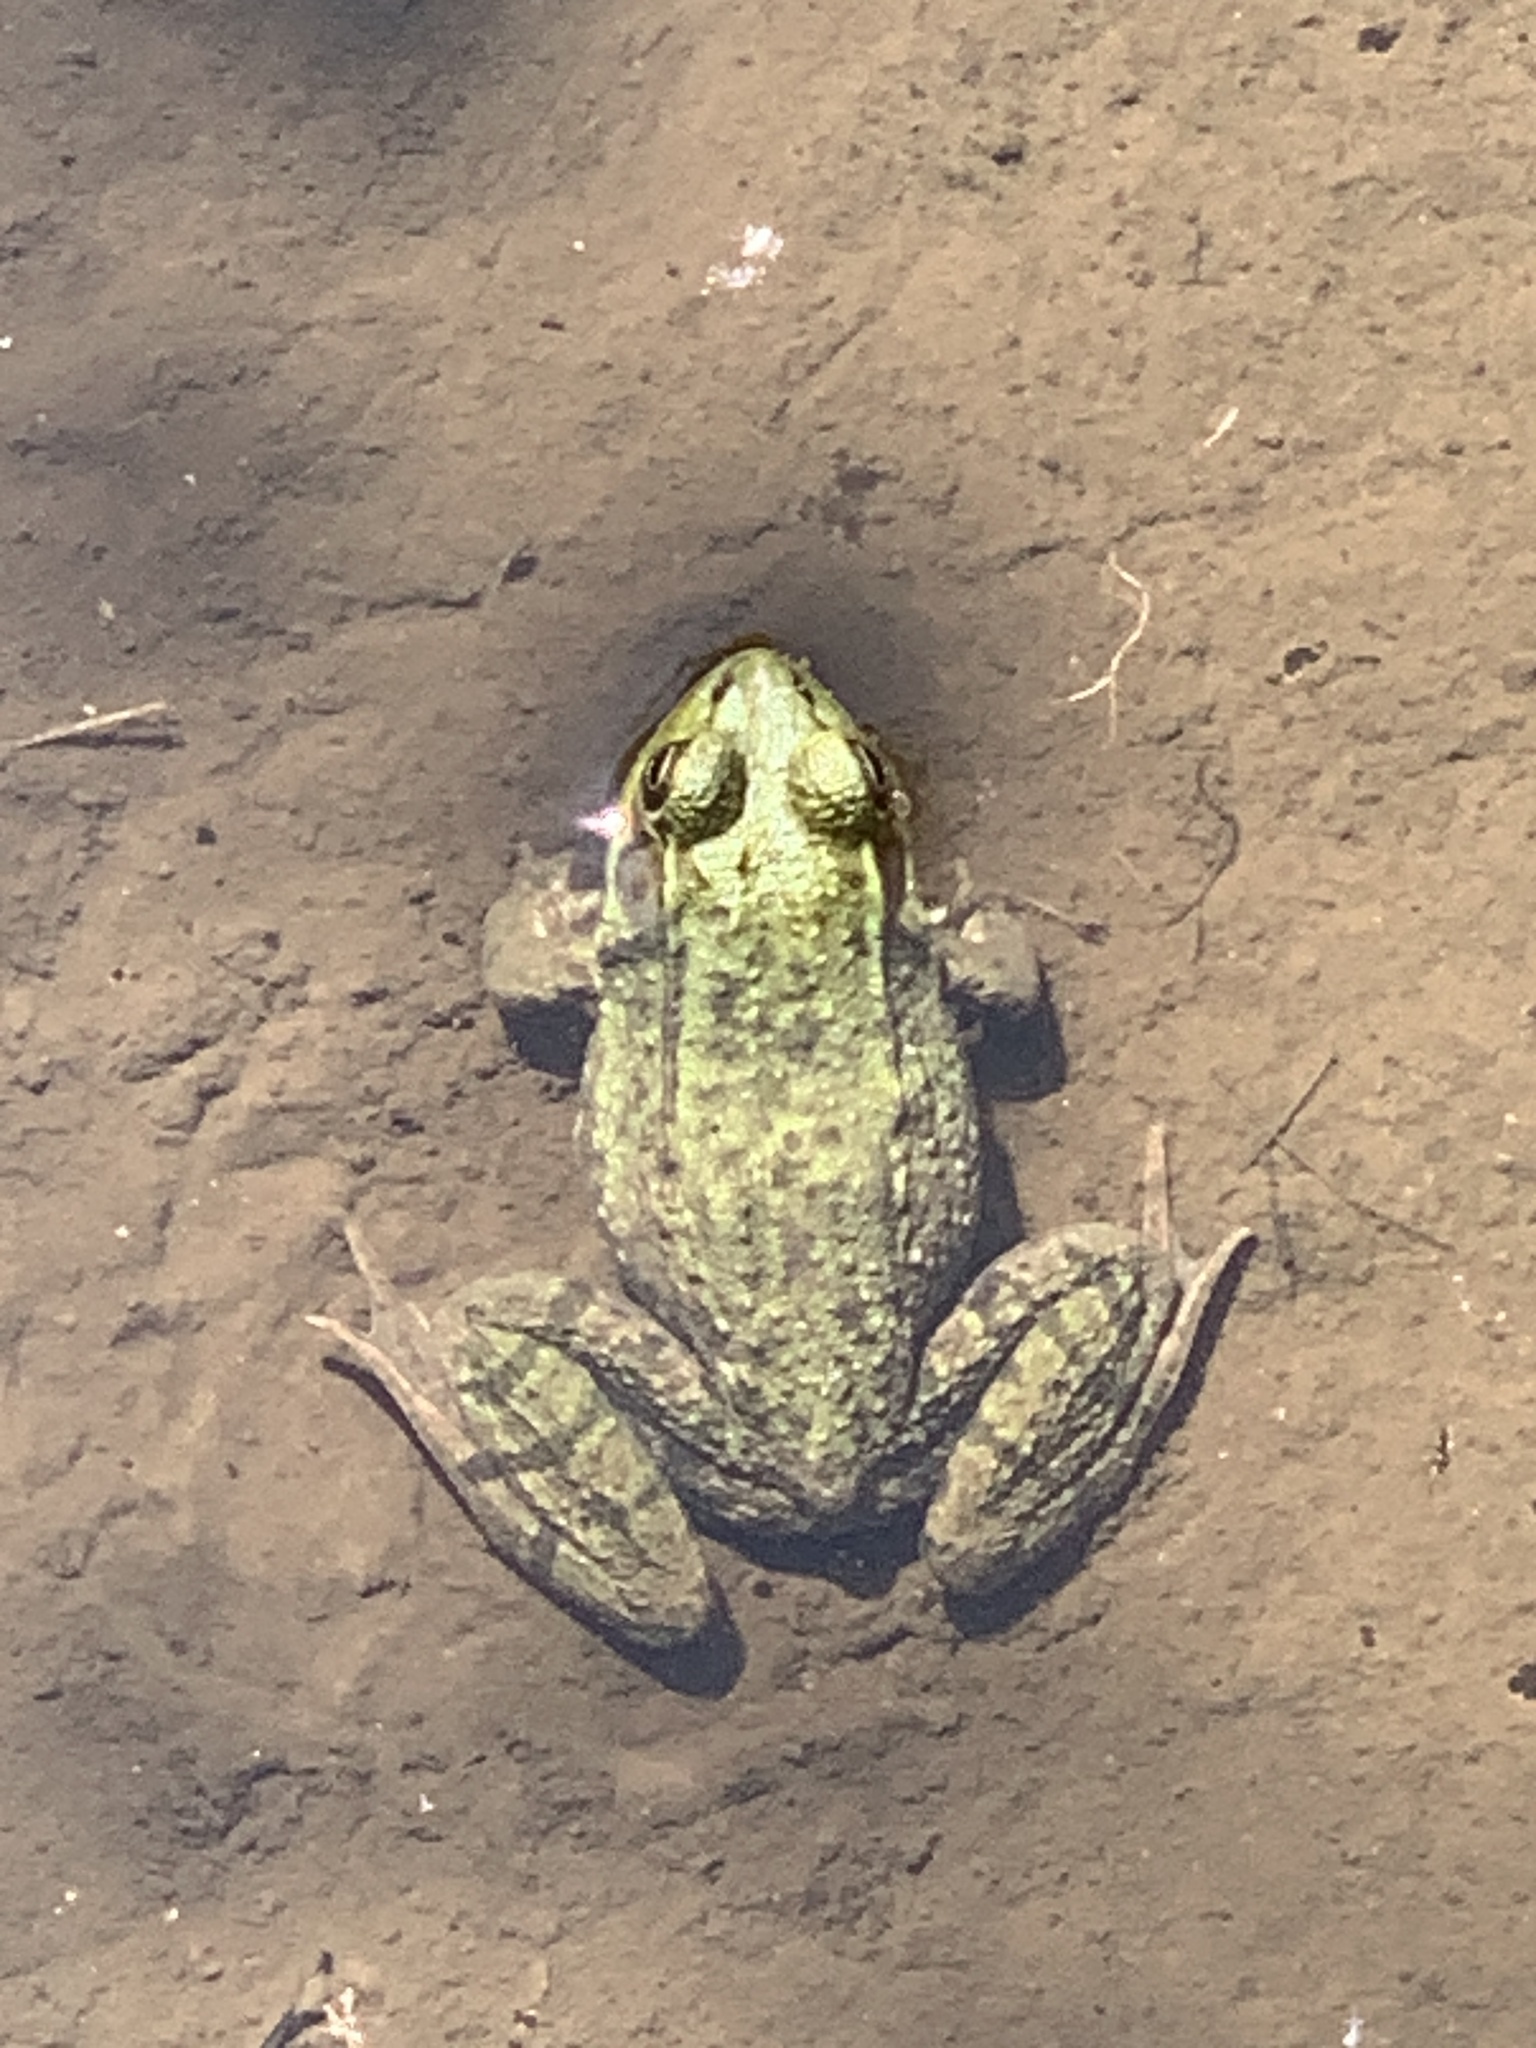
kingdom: Animalia
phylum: Chordata
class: Amphibia
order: Anura
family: Ranidae
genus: Lithobates
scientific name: Lithobates clamitans
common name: Green frog
